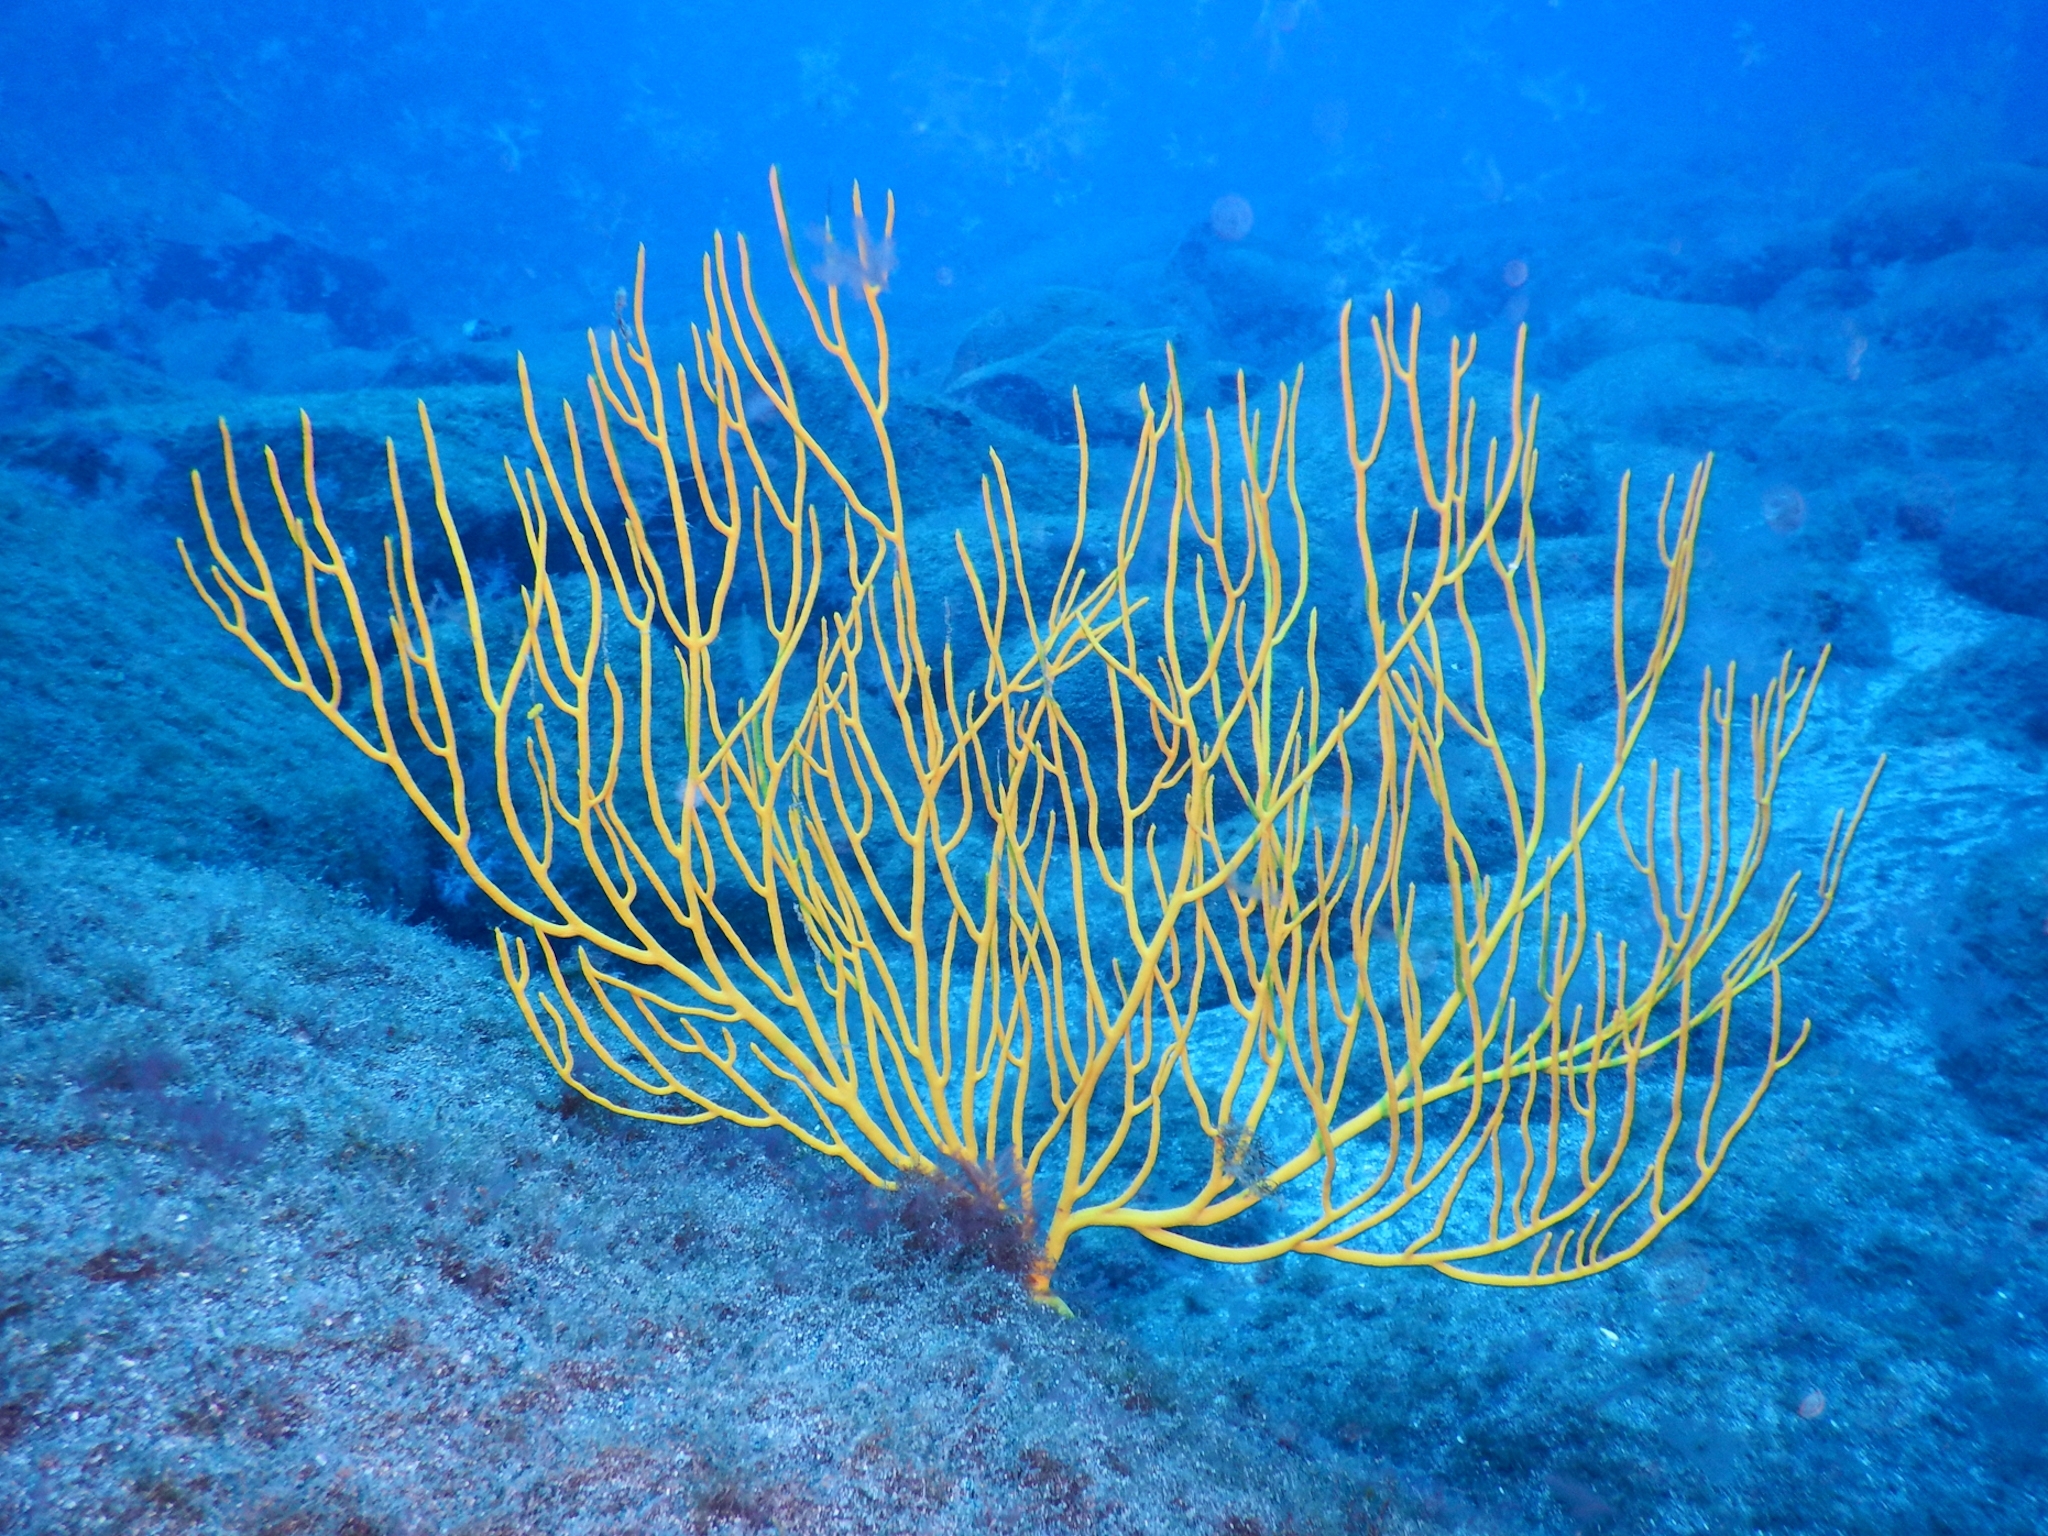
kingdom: Animalia
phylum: Cnidaria
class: Anthozoa
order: Malacalcyonacea
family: Gorgoniidae
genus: Leptogorgia
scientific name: Leptogorgia viminalis
